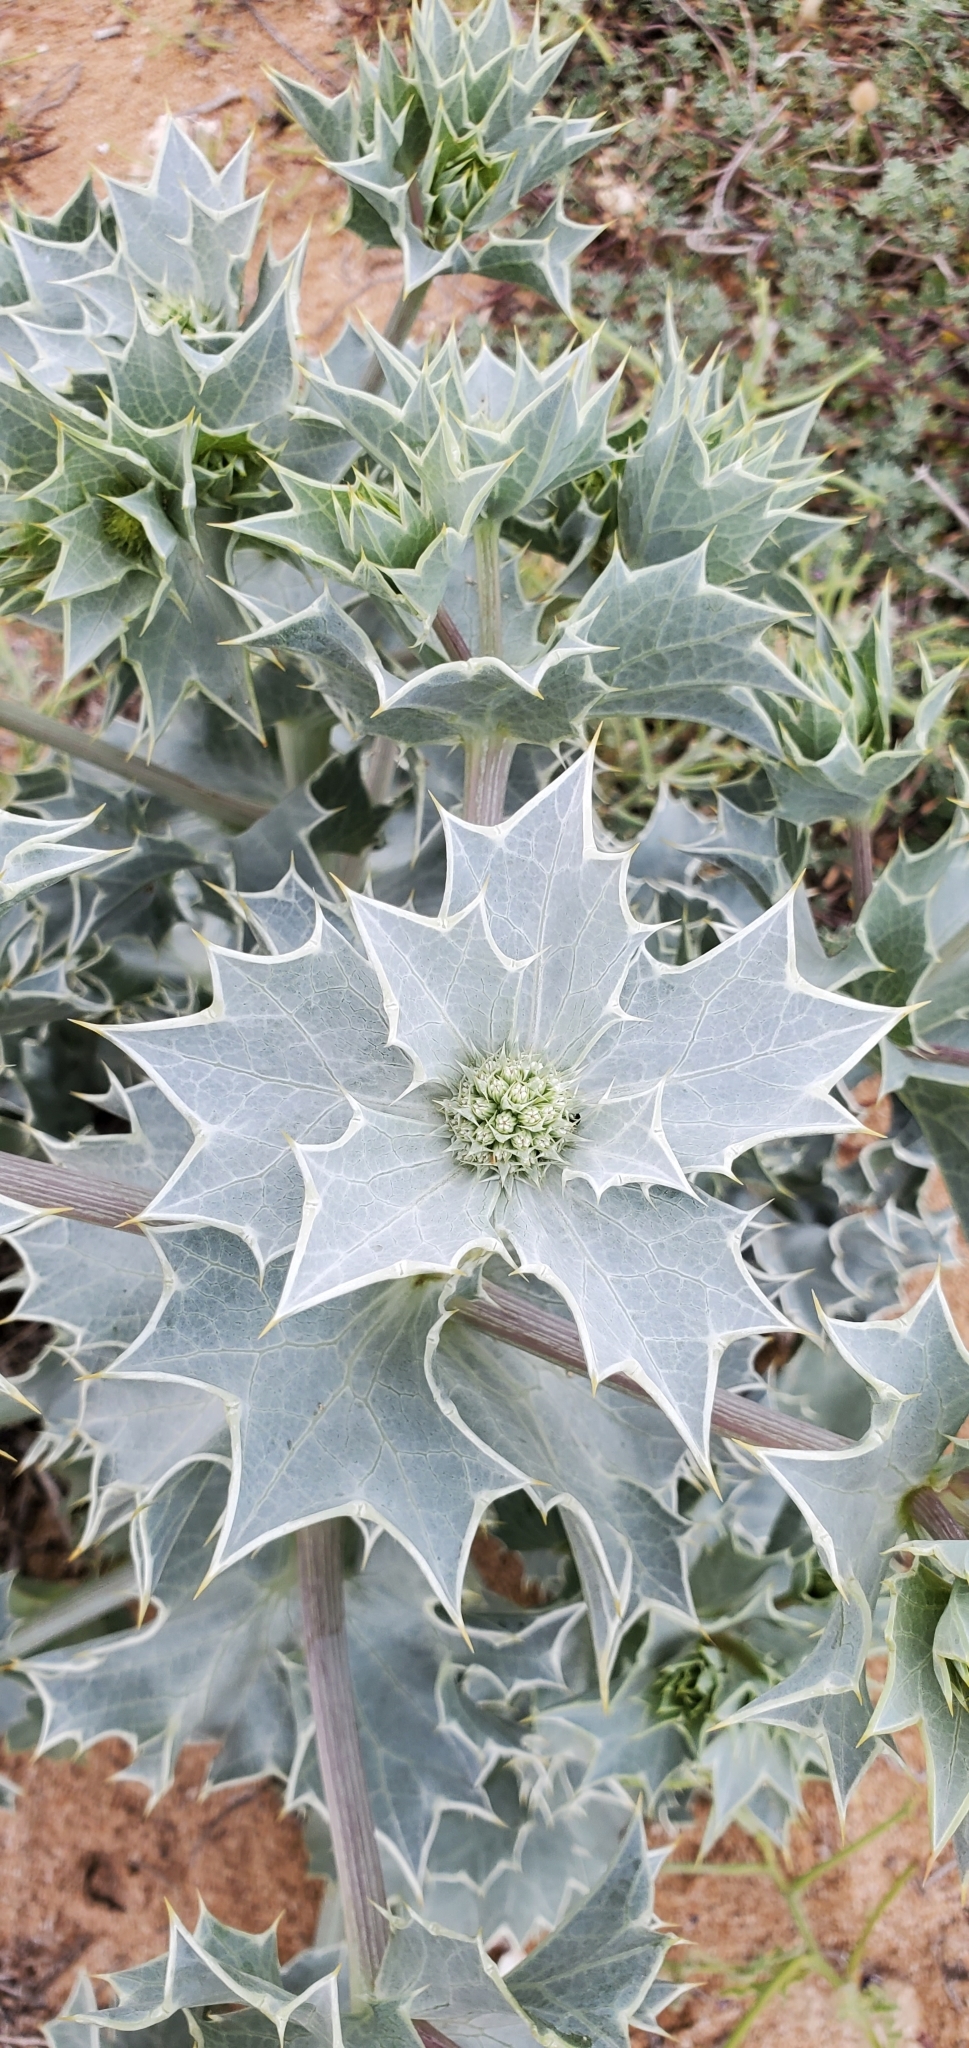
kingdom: Plantae
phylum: Tracheophyta
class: Magnoliopsida
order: Apiales
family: Apiaceae
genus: Eryngium
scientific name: Eryngium maritimum
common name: Sea-holly
